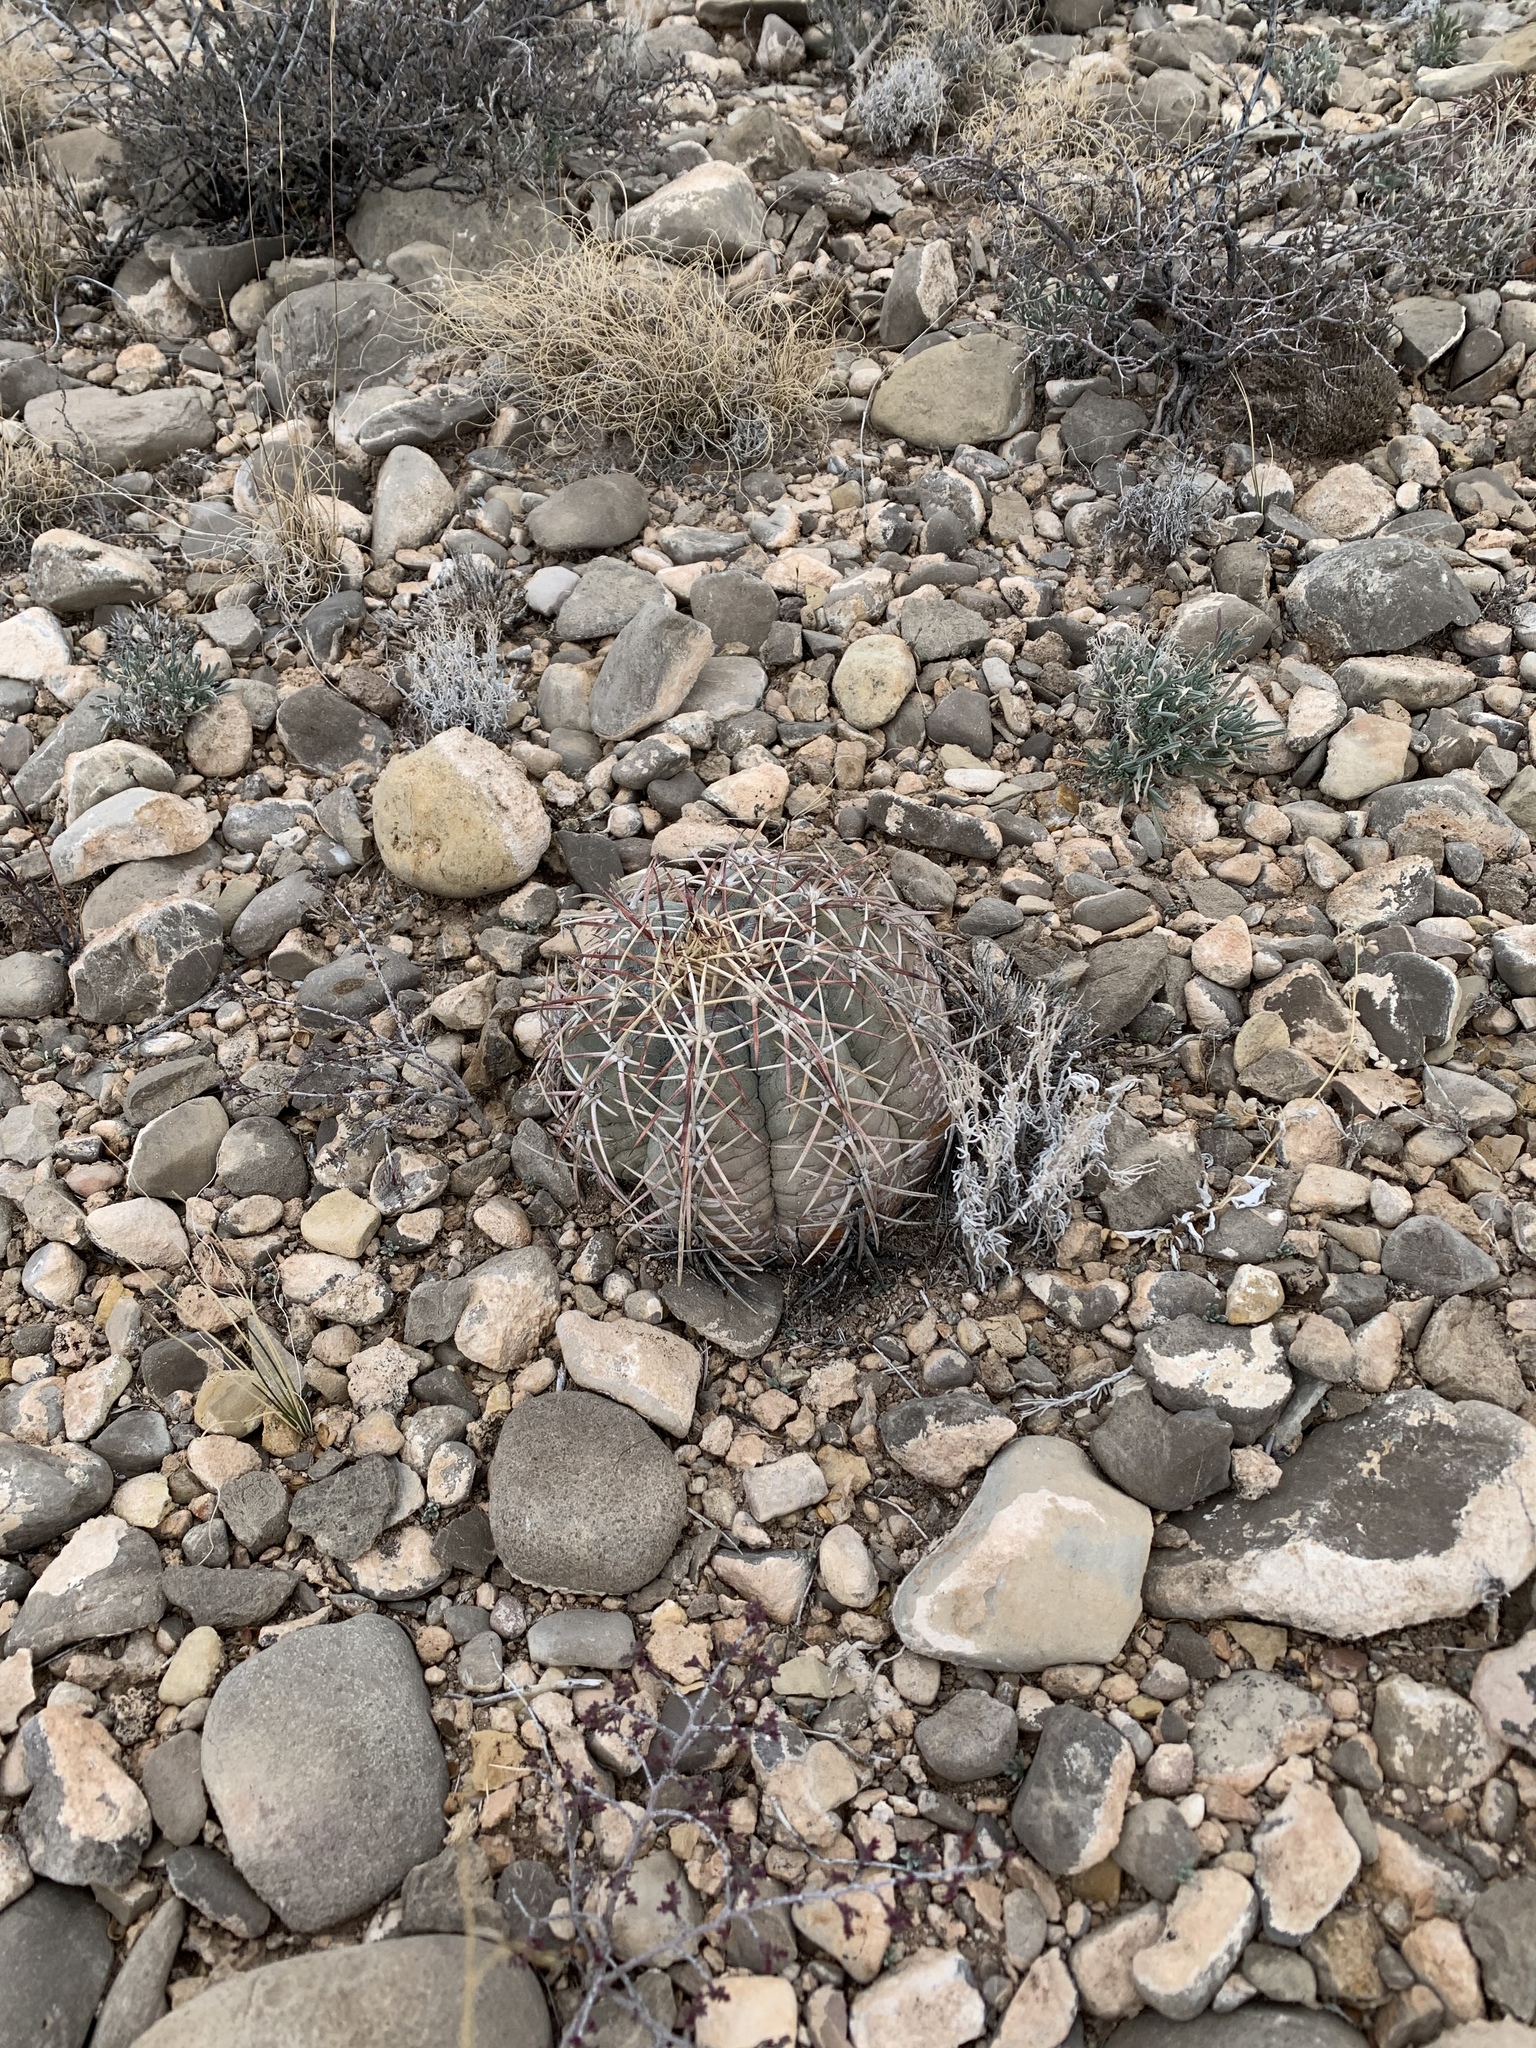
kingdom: Plantae
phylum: Tracheophyta
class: Magnoliopsida
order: Caryophyllales
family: Cactaceae
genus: Echinocactus
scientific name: Echinocactus horizonthalonius
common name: Devilshead
